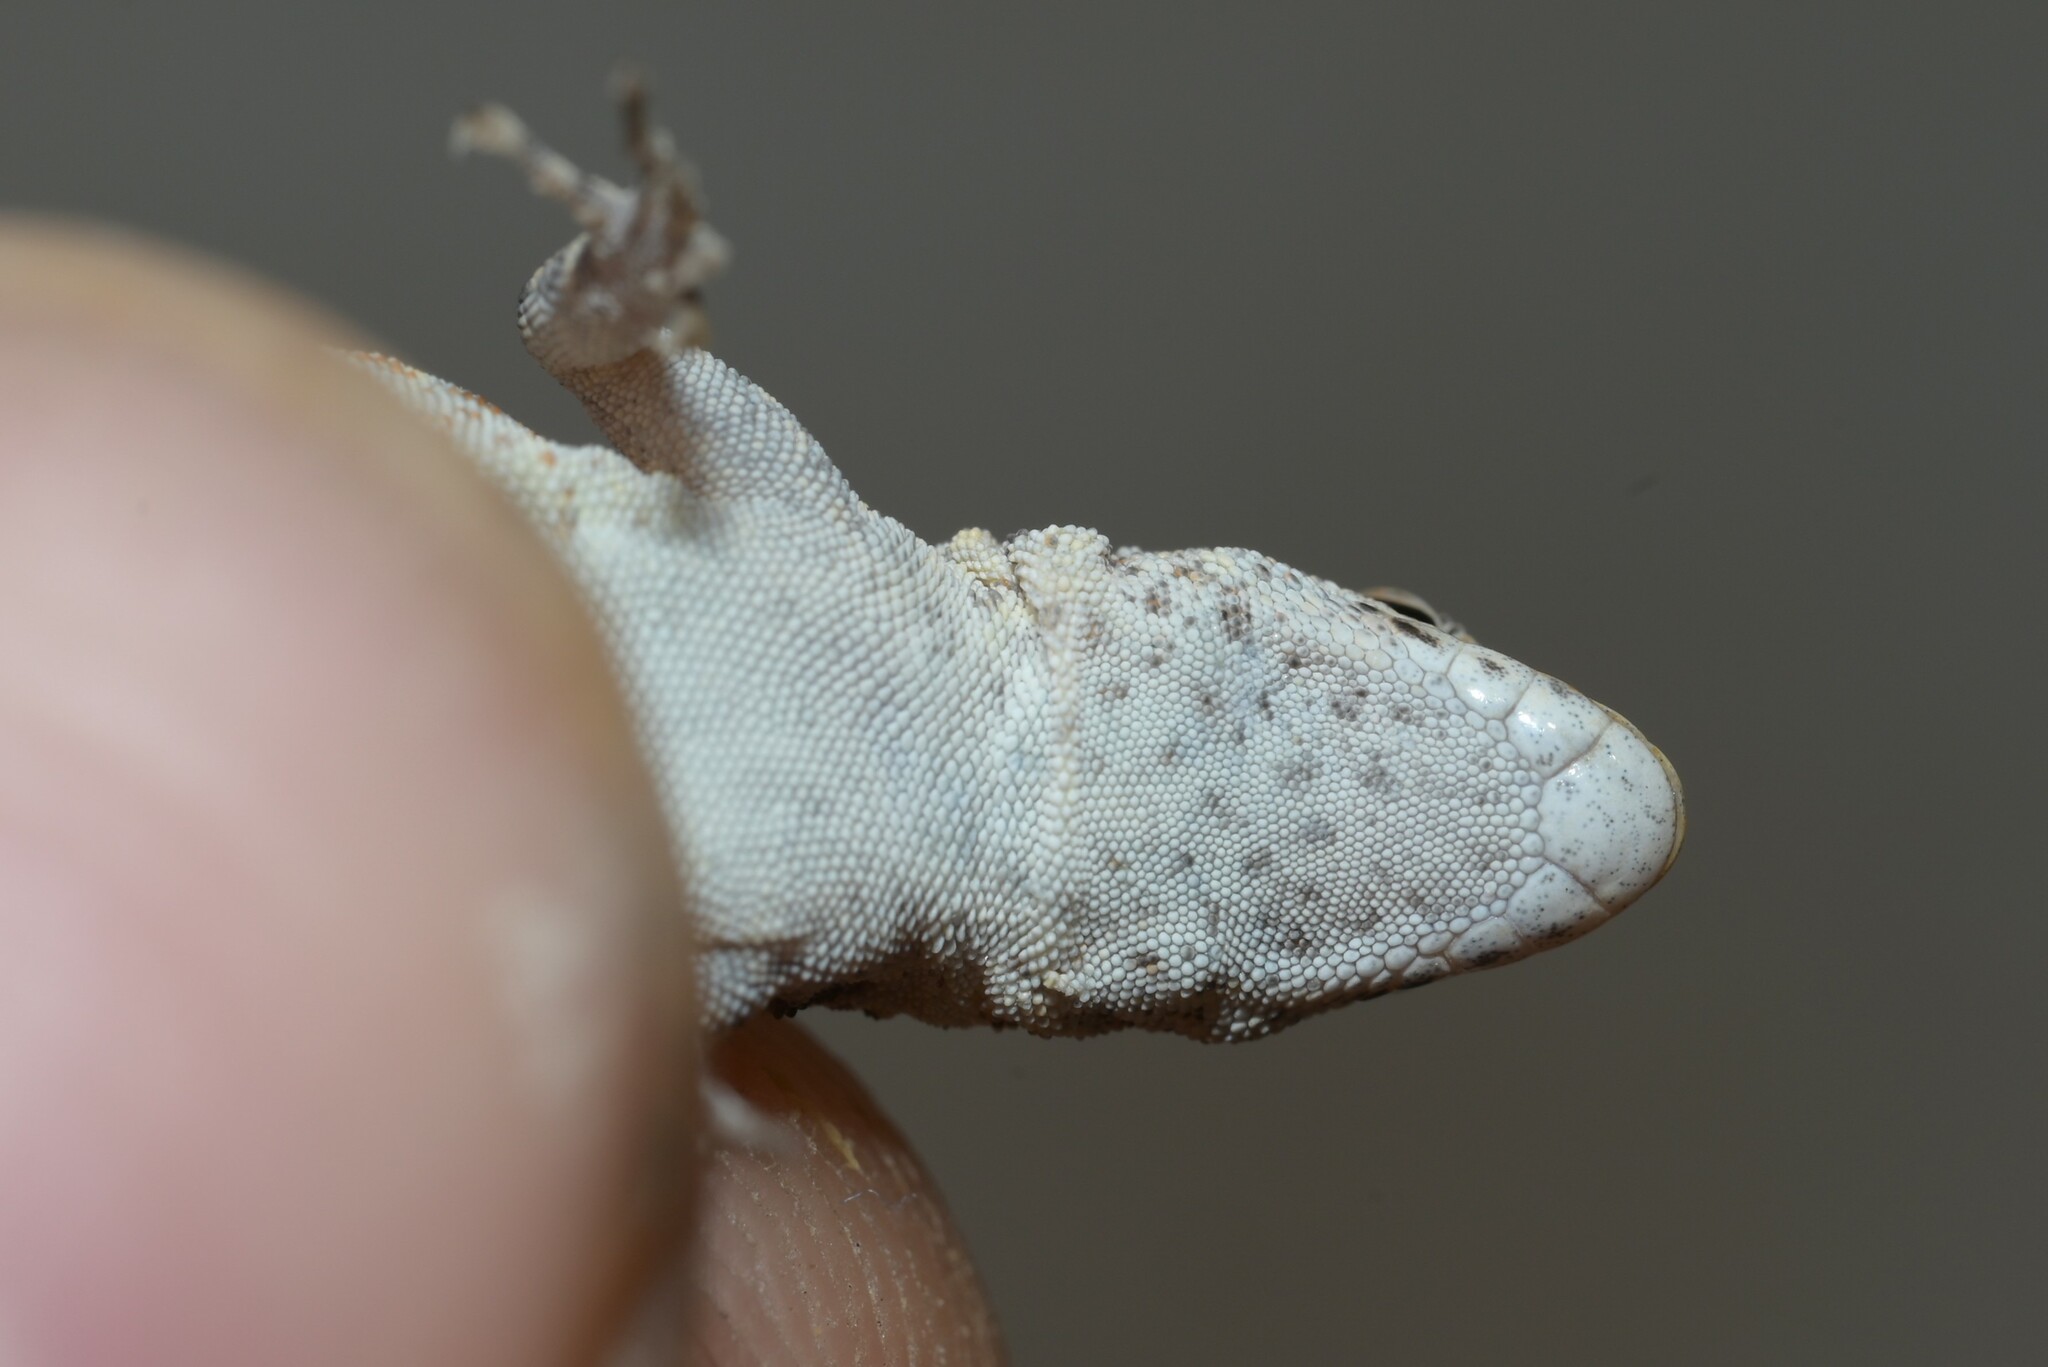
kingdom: Animalia
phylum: Chordata
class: Squamata
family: Sphaerodactylidae
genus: Pristurus
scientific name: Pristurus rupestris
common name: Blanford’s semaphore gecko
